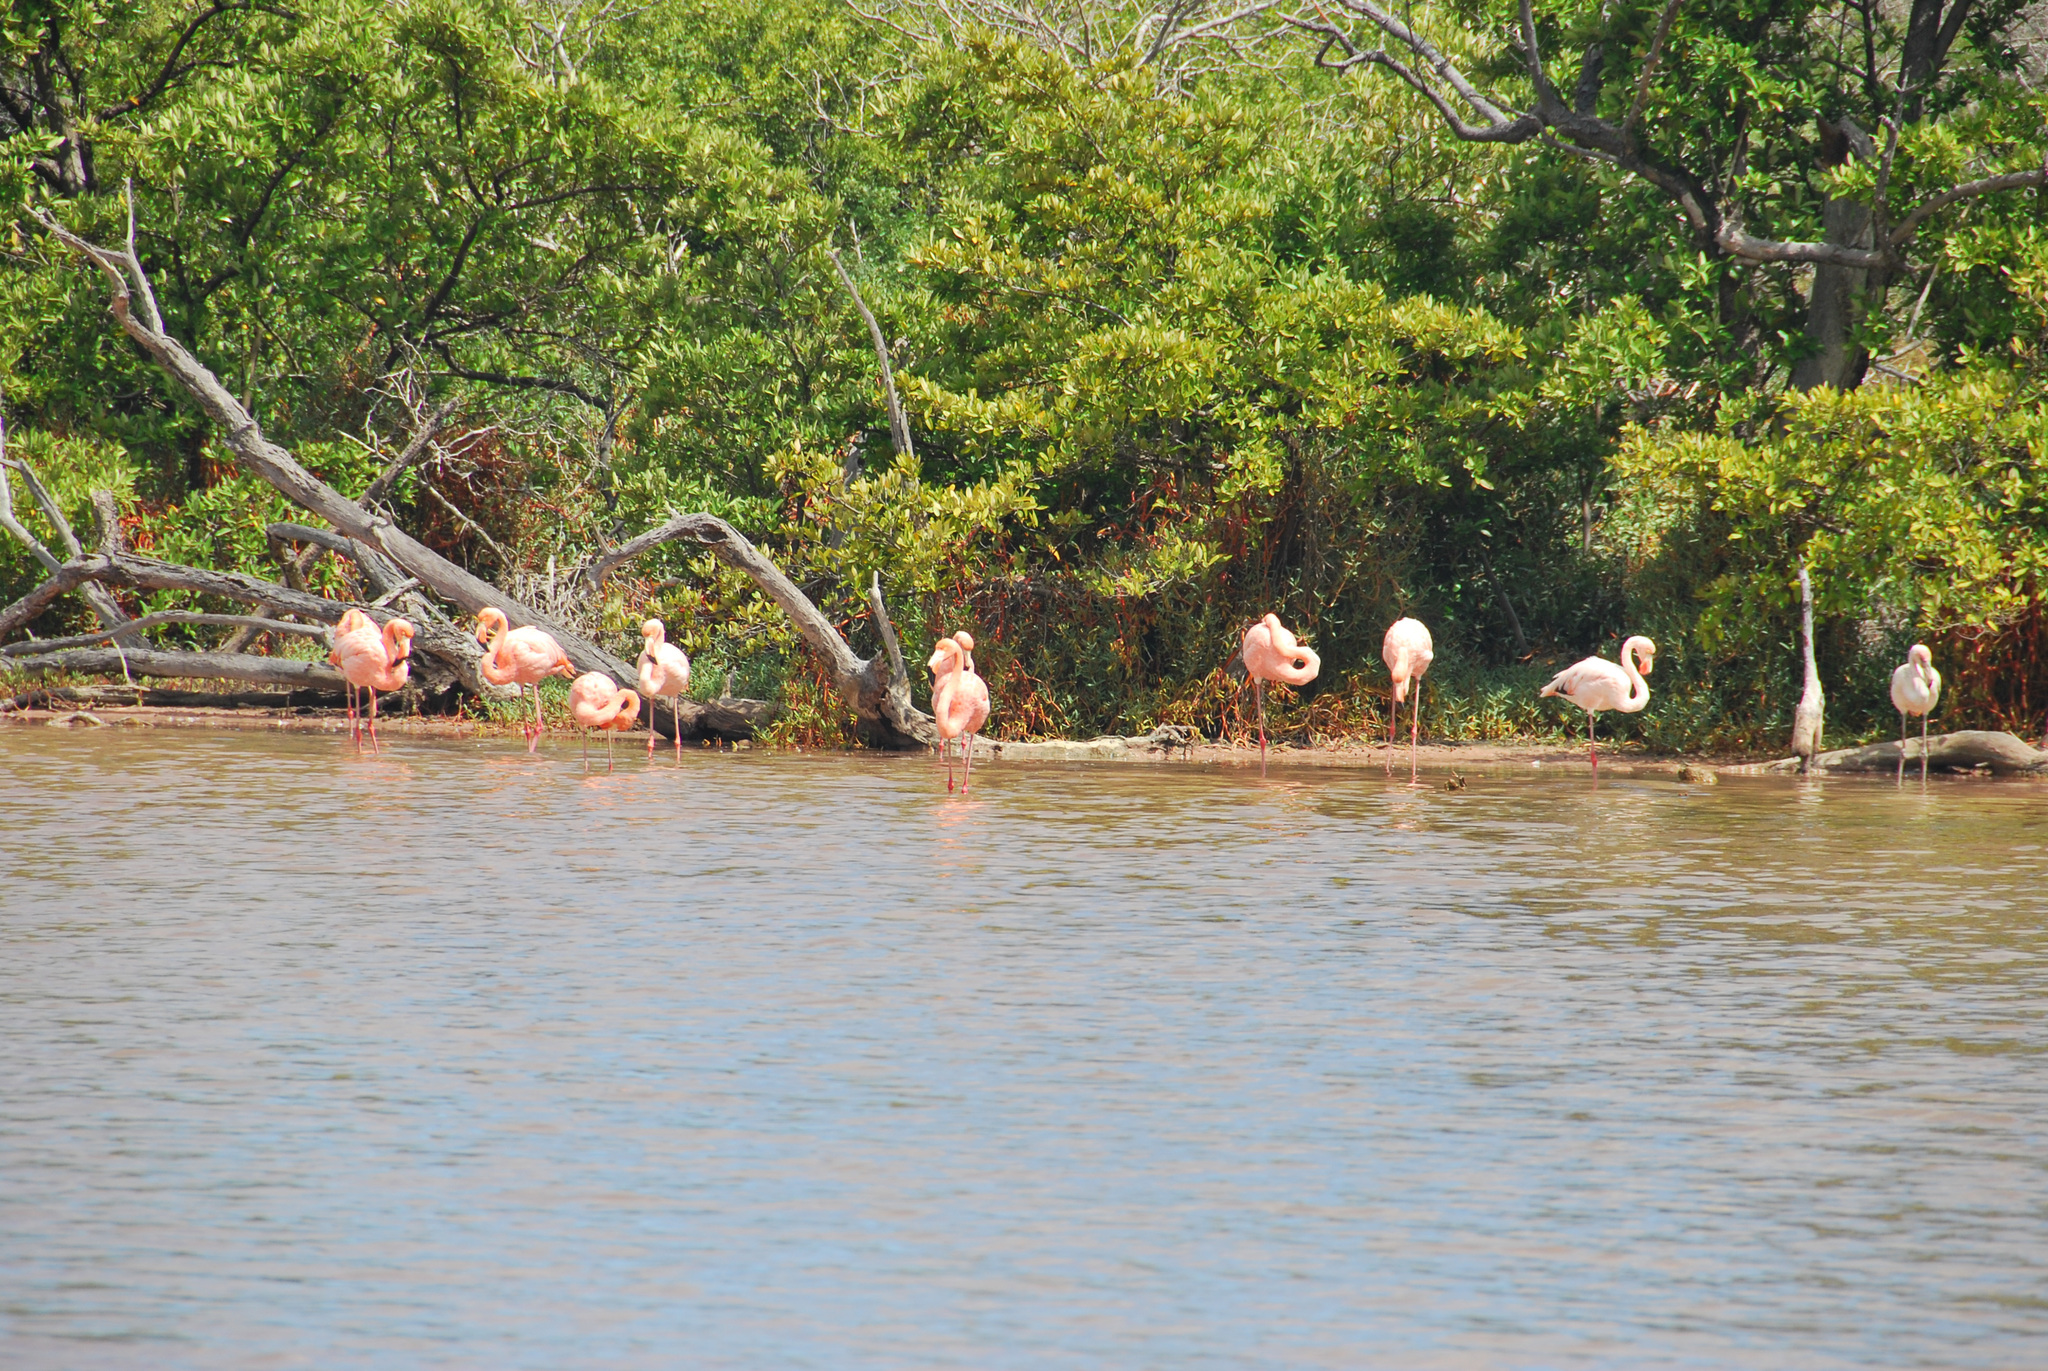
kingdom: Animalia
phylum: Chordata
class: Aves
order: Phoenicopteriformes
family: Phoenicopteridae
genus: Phoenicopterus
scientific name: Phoenicopterus ruber
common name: American flamingo
